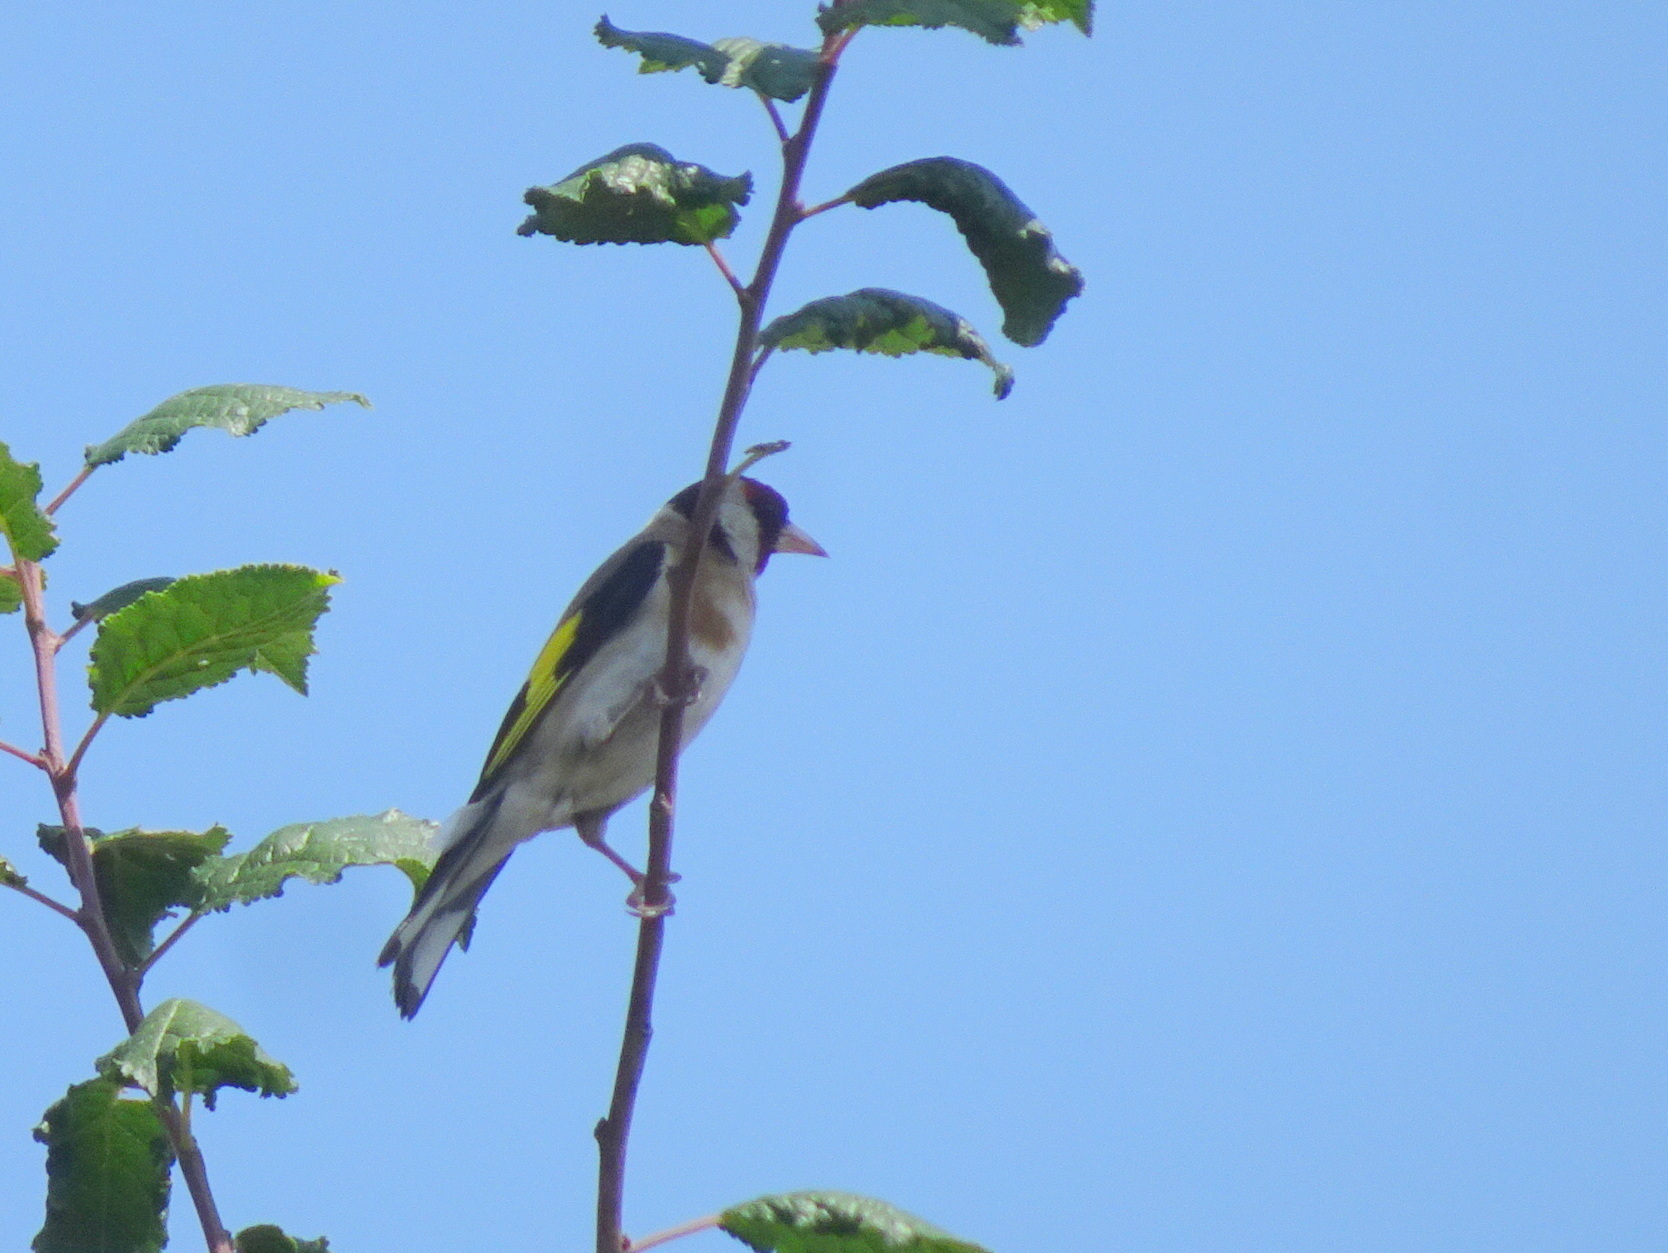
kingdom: Animalia
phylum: Chordata
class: Aves
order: Passeriformes
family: Fringillidae
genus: Carduelis
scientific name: Carduelis carduelis
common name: European goldfinch
